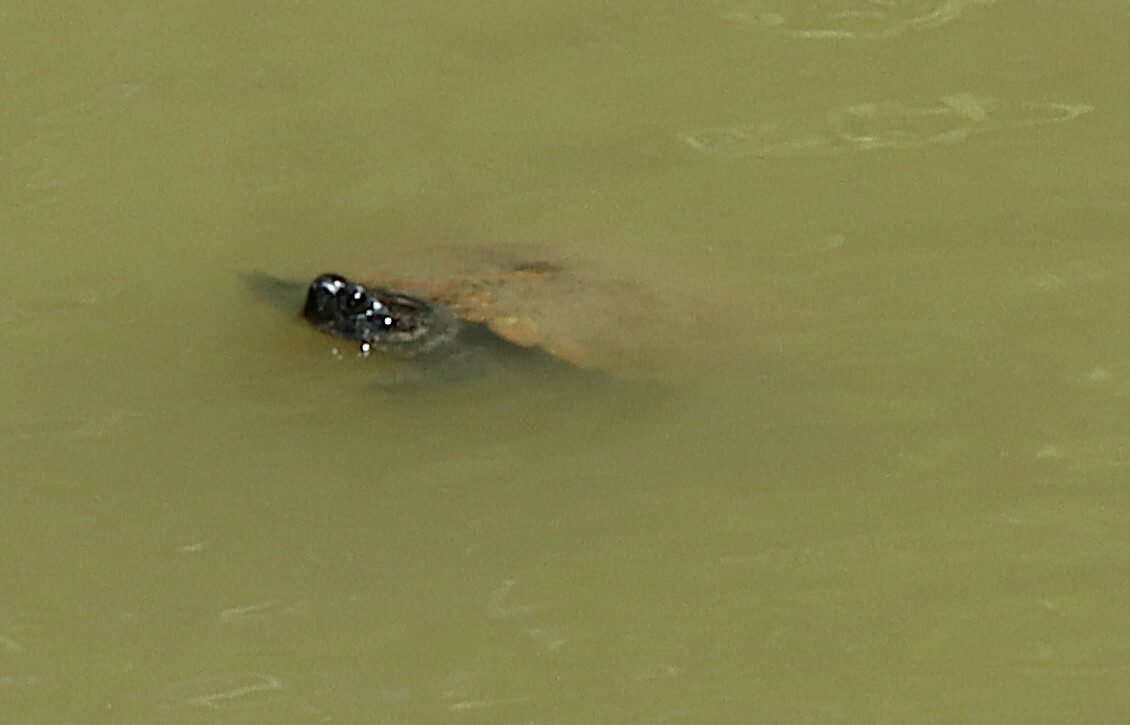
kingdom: Animalia
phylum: Chordata
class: Testudines
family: Emydidae
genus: Trachemys
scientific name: Trachemys scripta
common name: Slider
